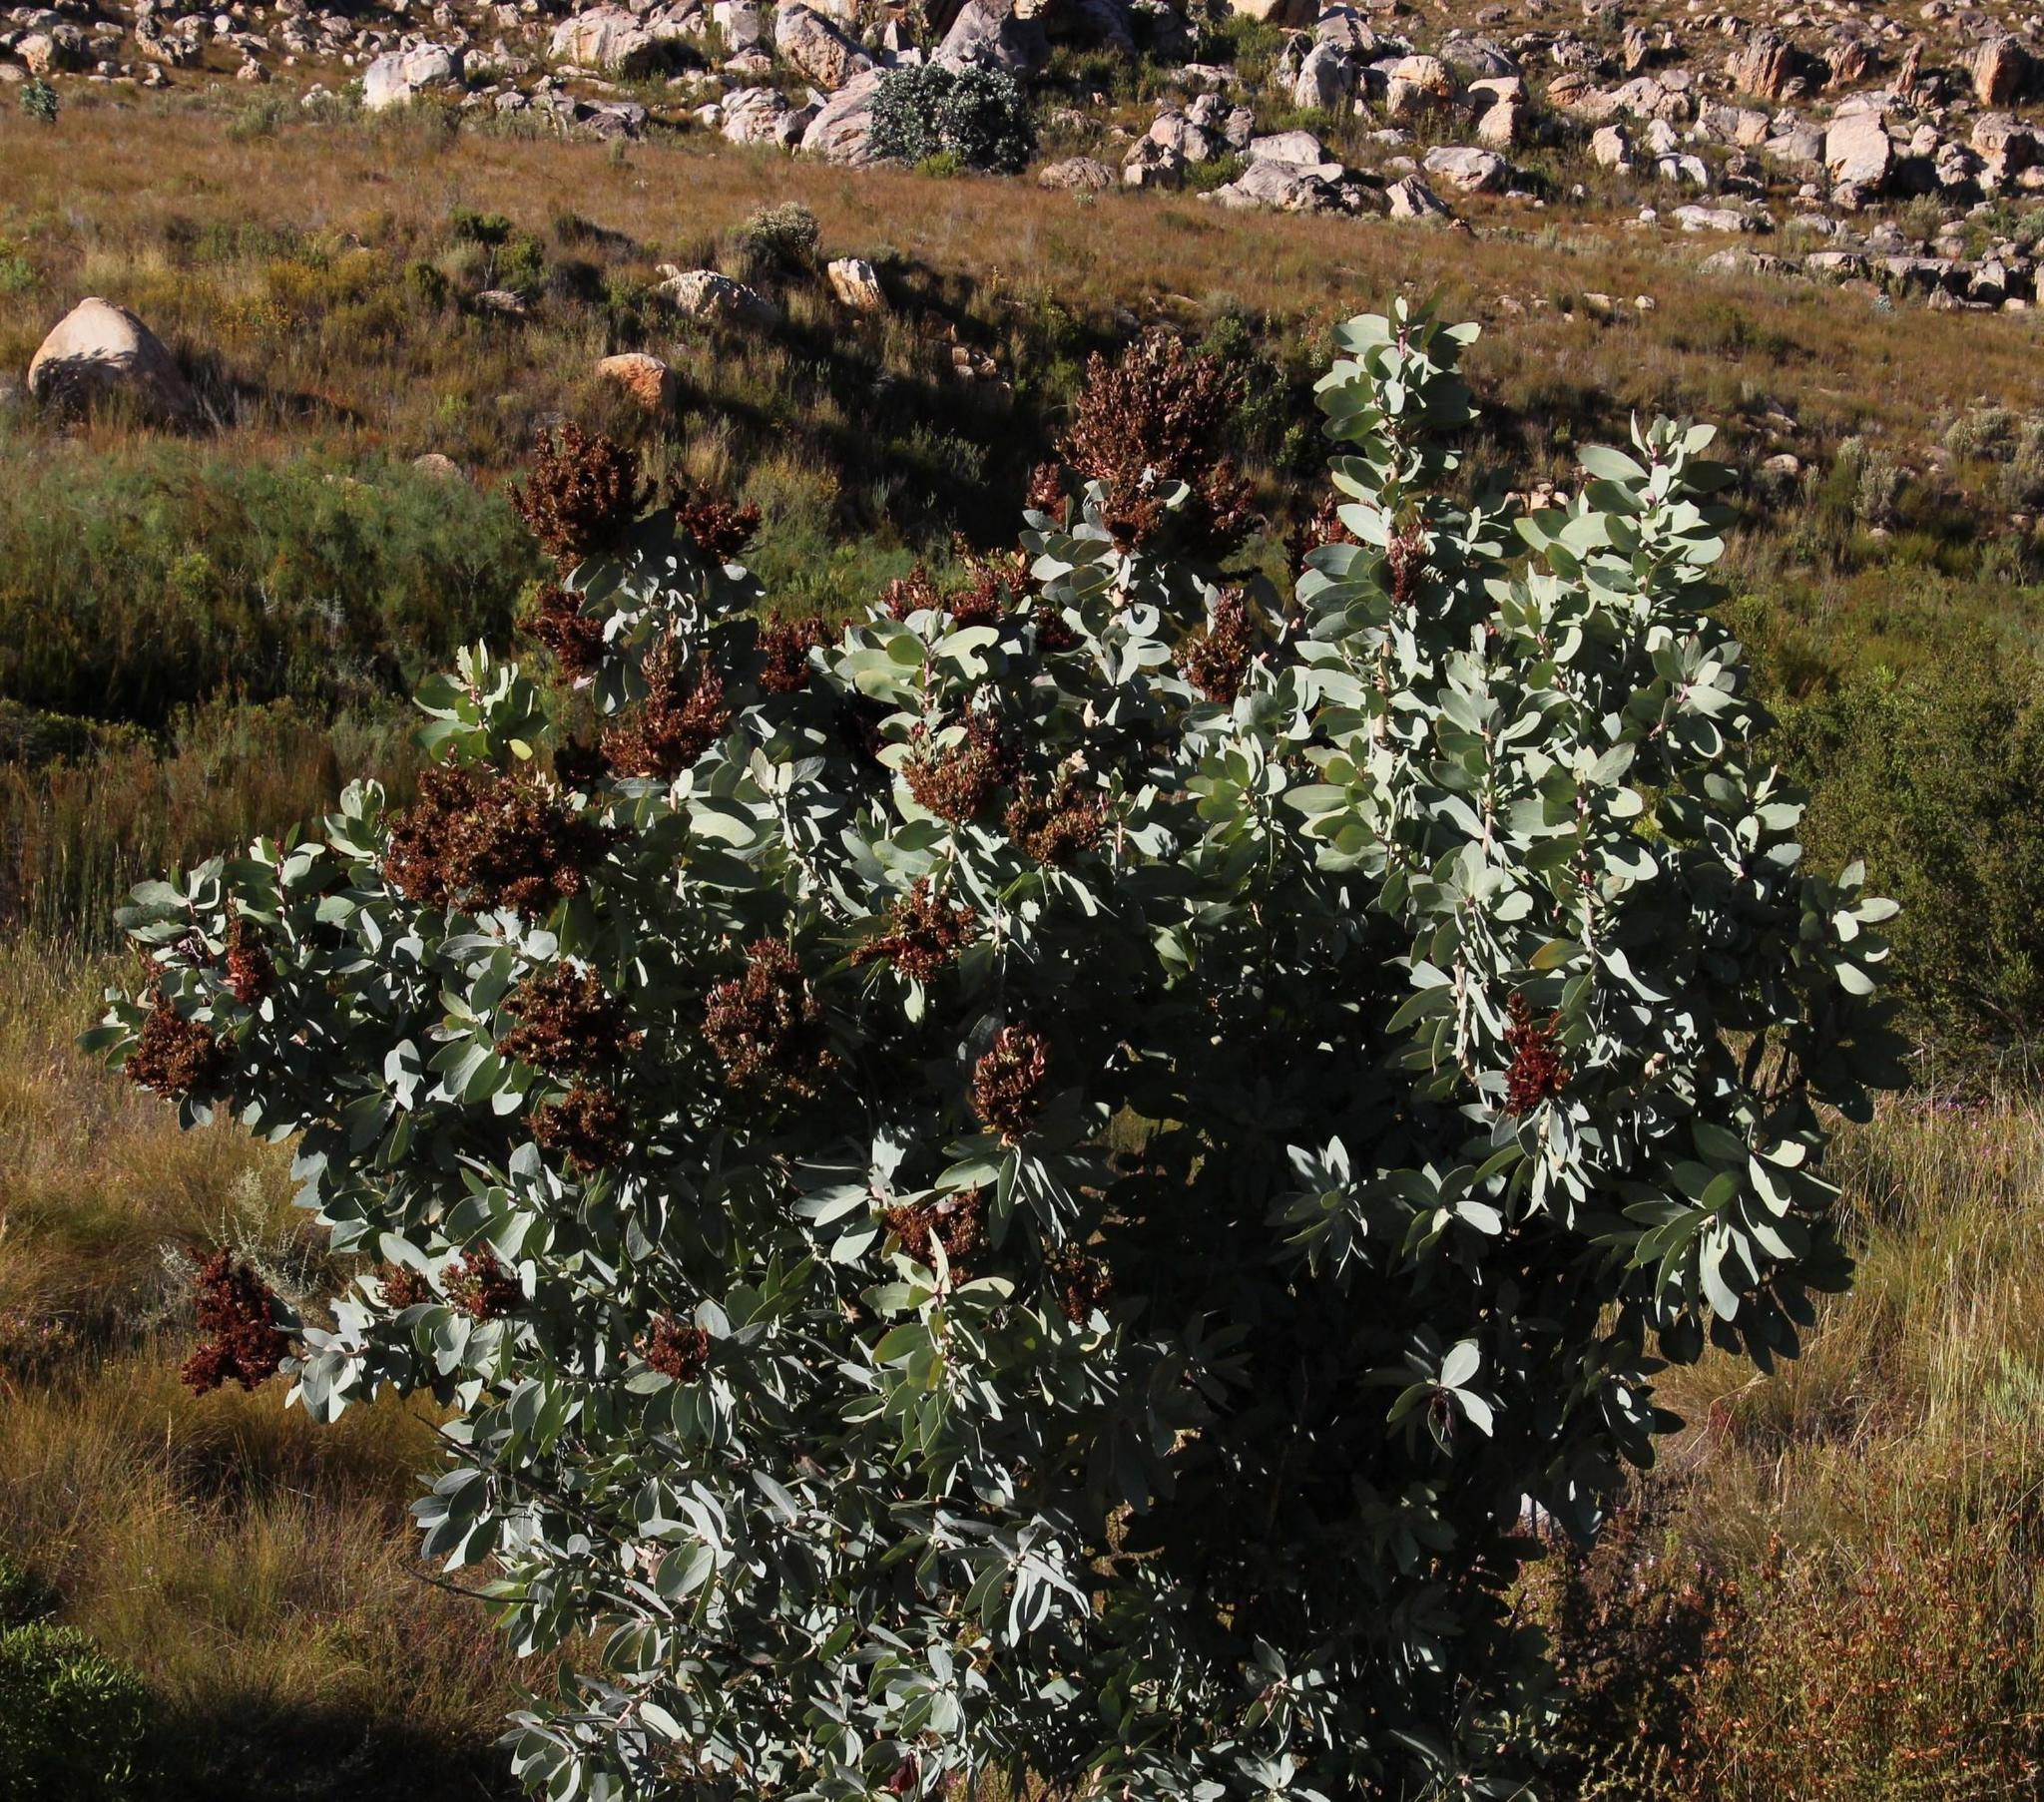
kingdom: Plantae
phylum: Tracheophyta
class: Magnoliopsida
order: Proteales
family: Proteaceae
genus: Protea
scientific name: Protea nitida
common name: Tree protea
